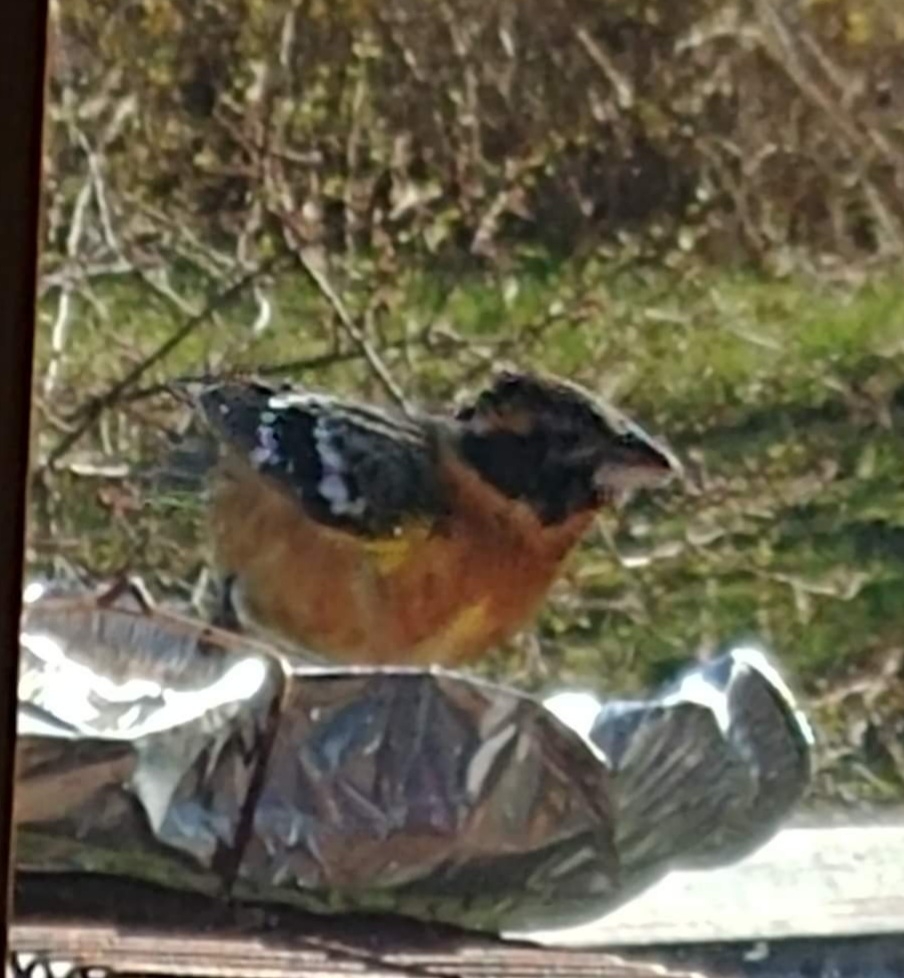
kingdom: Animalia
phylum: Chordata
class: Aves
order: Passeriformes
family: Cardinalidae
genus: Pheucticus
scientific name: Pheucticus melanocephalus
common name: Black-headed grosbeak
